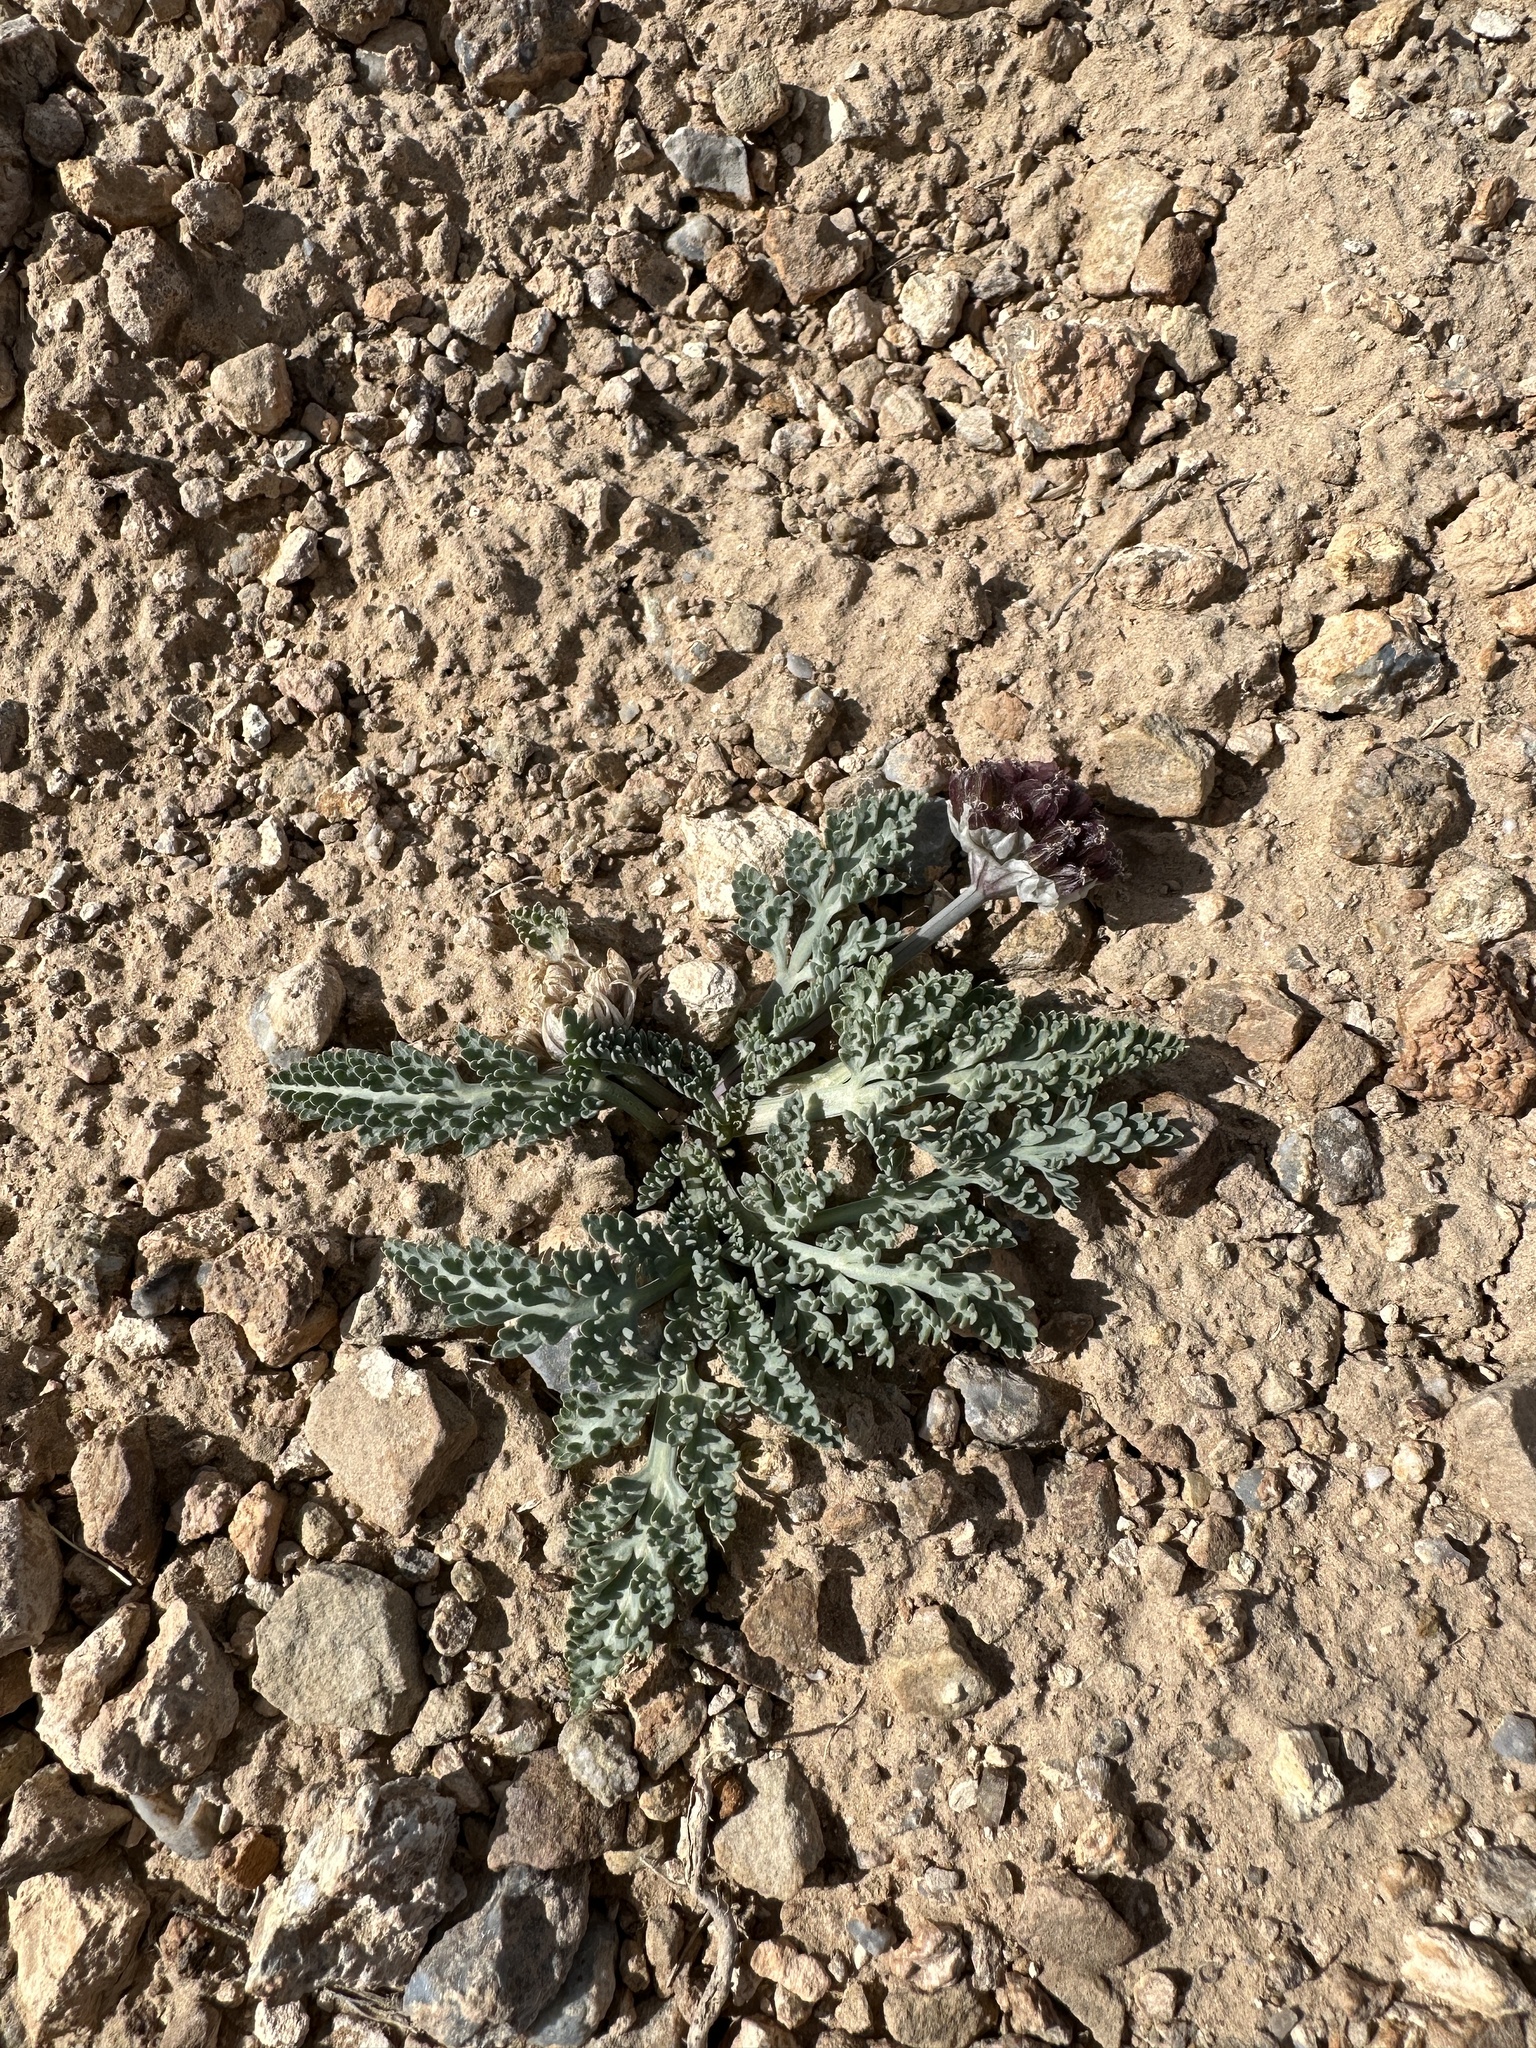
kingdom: Plantae
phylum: Tracheophyta
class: Magnoliopsida
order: Apiales
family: Apiaceae
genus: Vesper
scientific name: Vesper purpurascens
